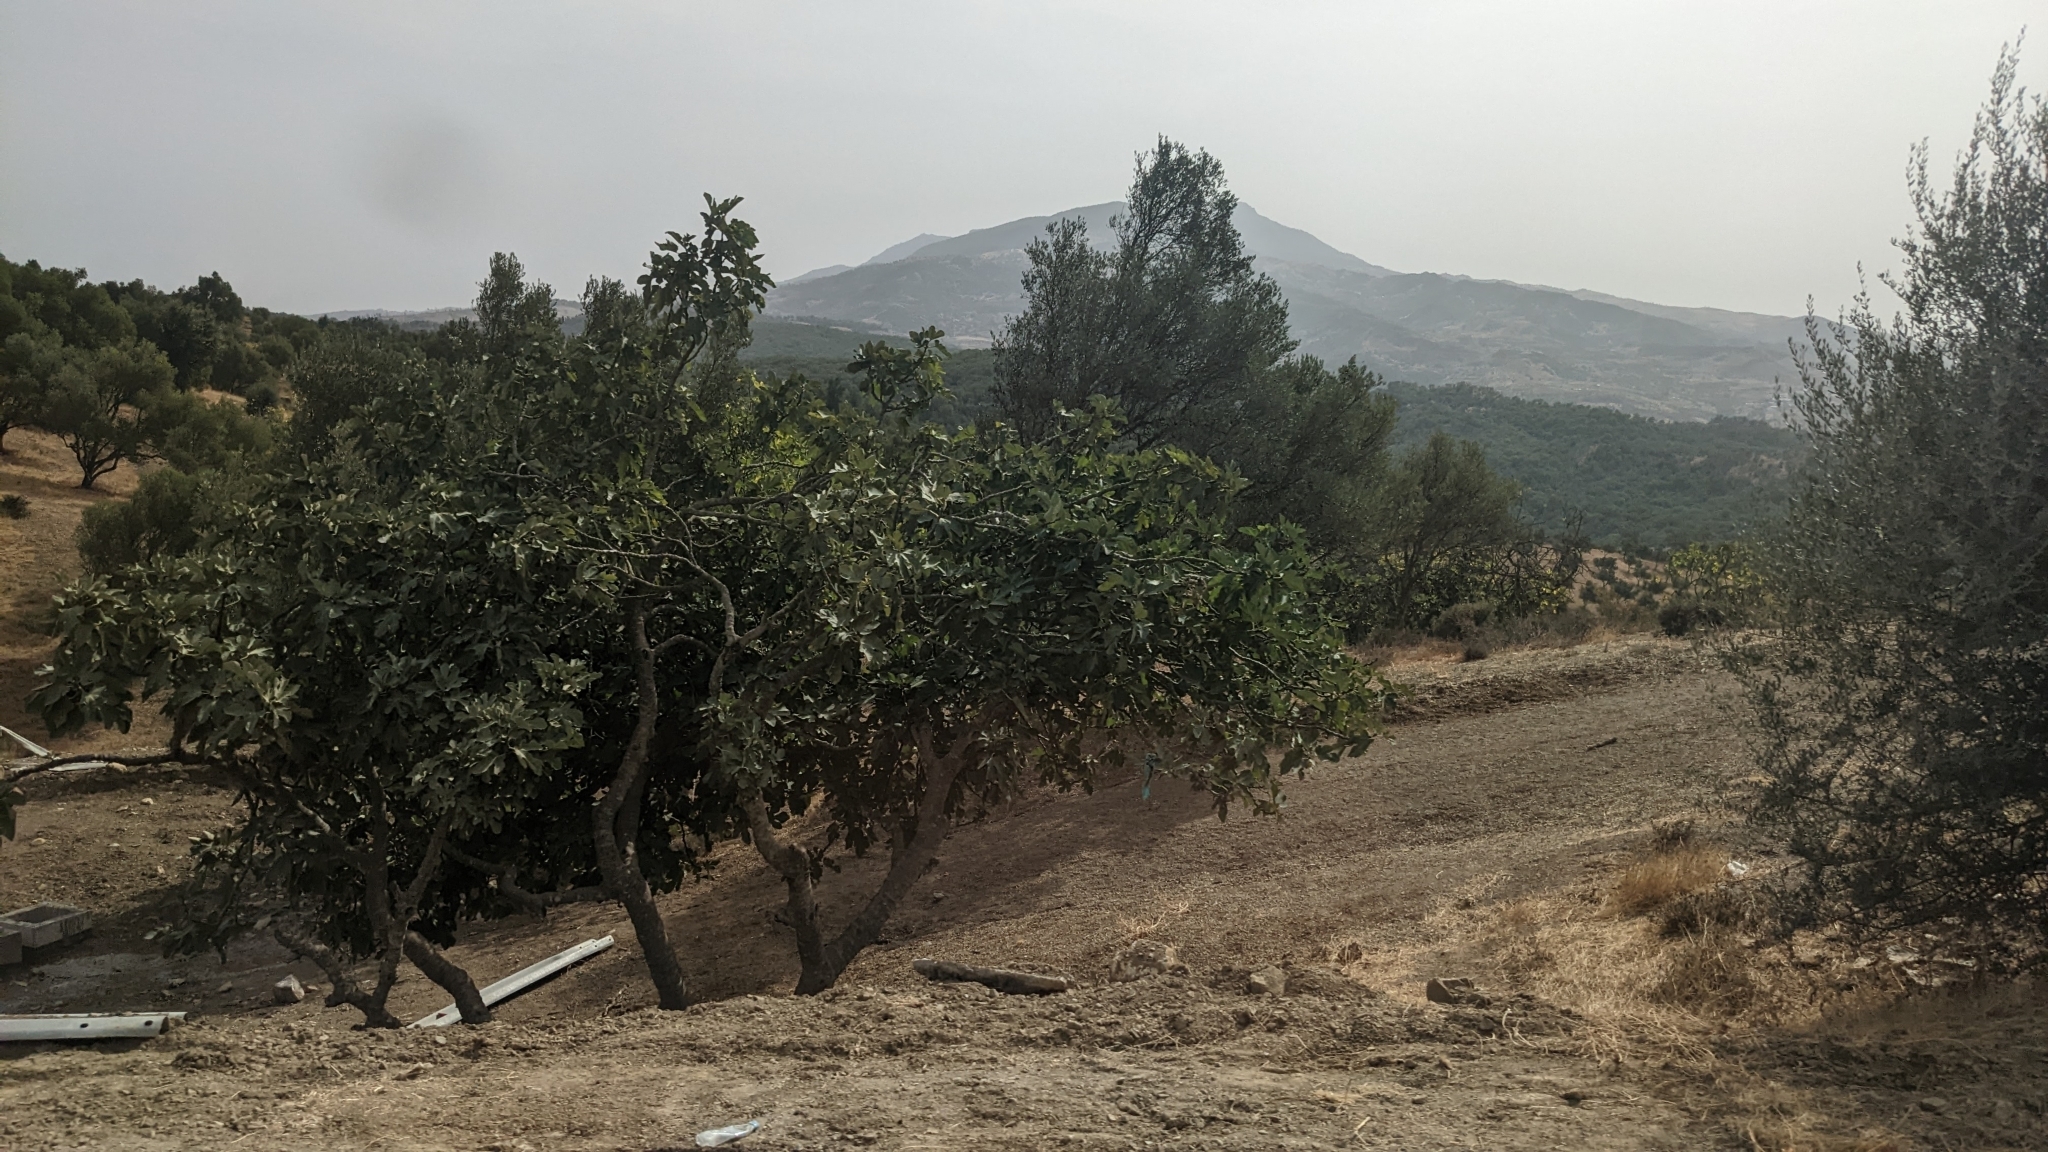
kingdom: Plantae
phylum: Tracheophyta
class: Magnoliopsida
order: Rosales
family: Moraceae
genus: Ficus
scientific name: Ficus carica
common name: Fig
